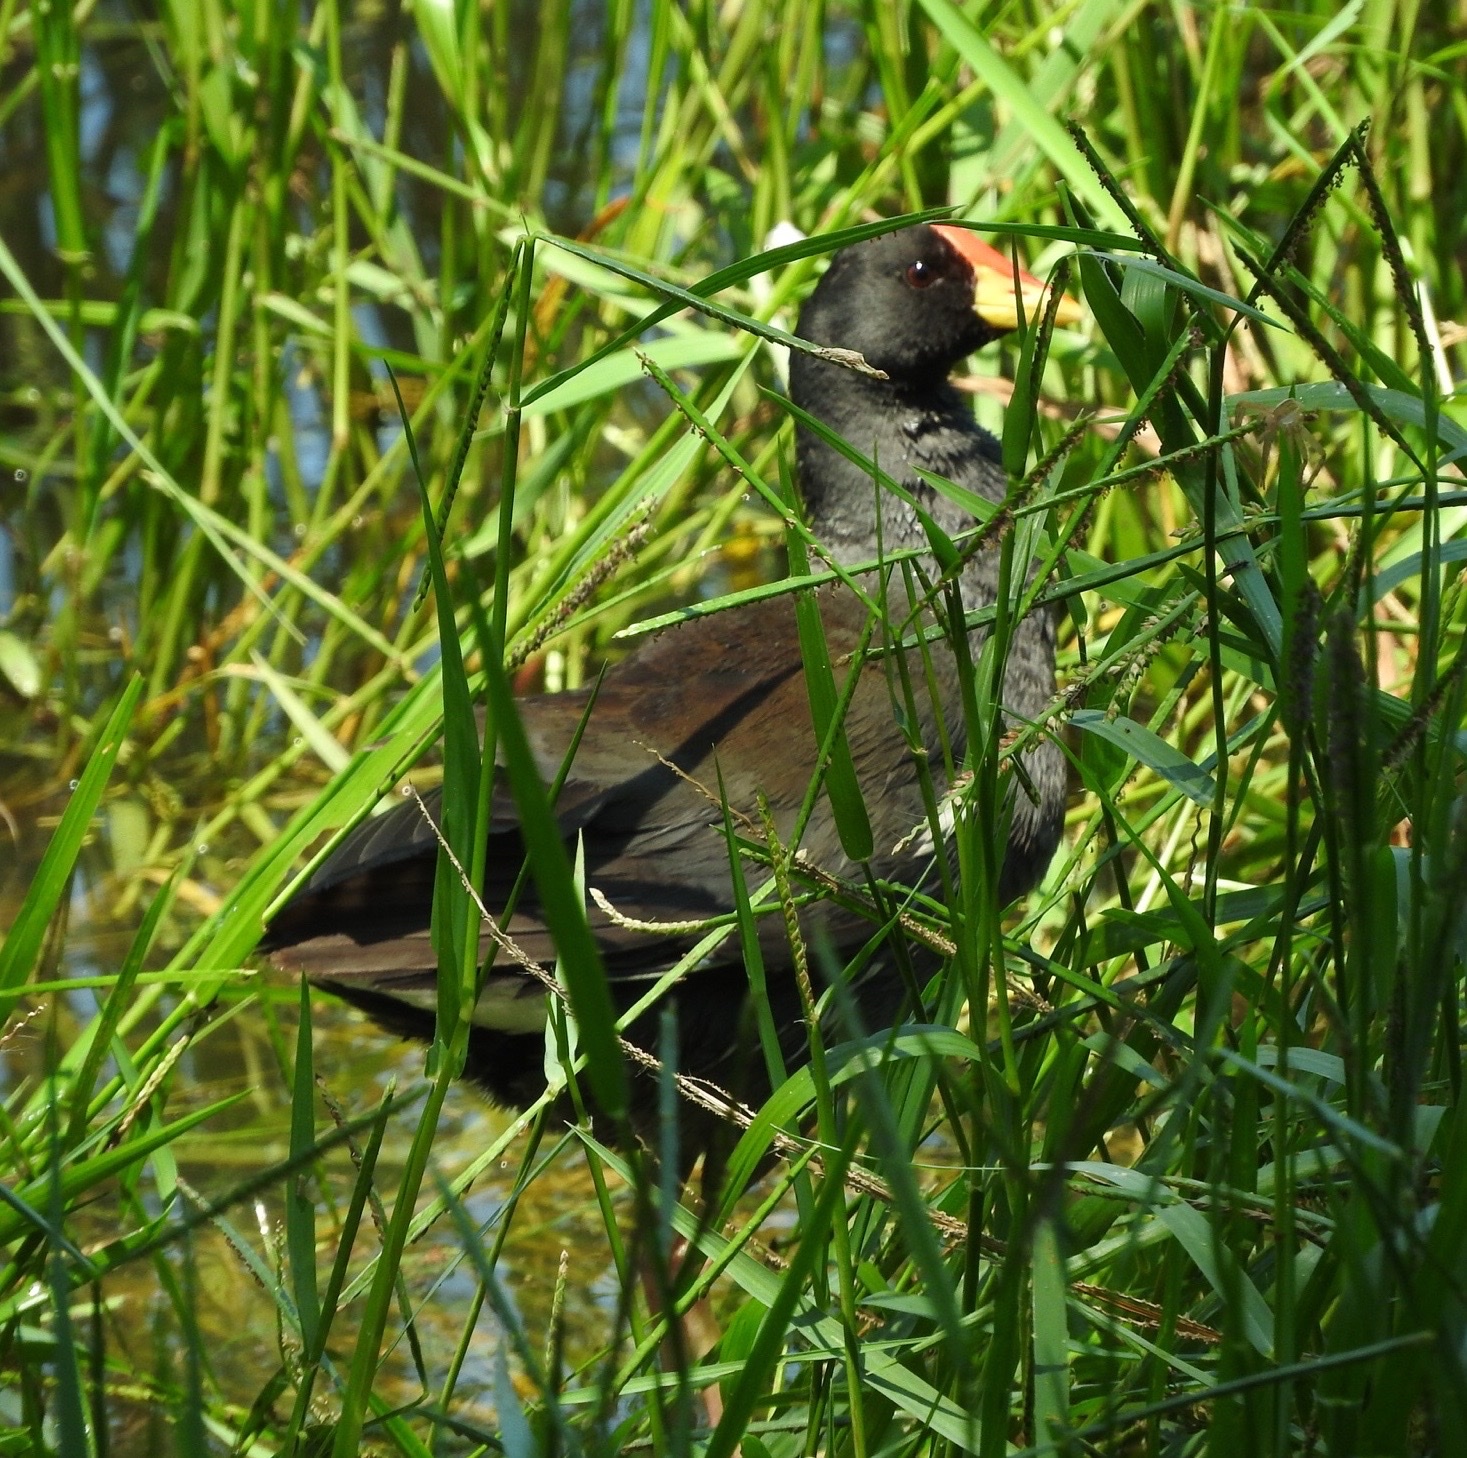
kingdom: Animalia
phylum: Chordata
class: Aves
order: Gruiformes
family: Rallidae
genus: Gallinula
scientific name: Gallinula angulata
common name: Lesser moorhen
